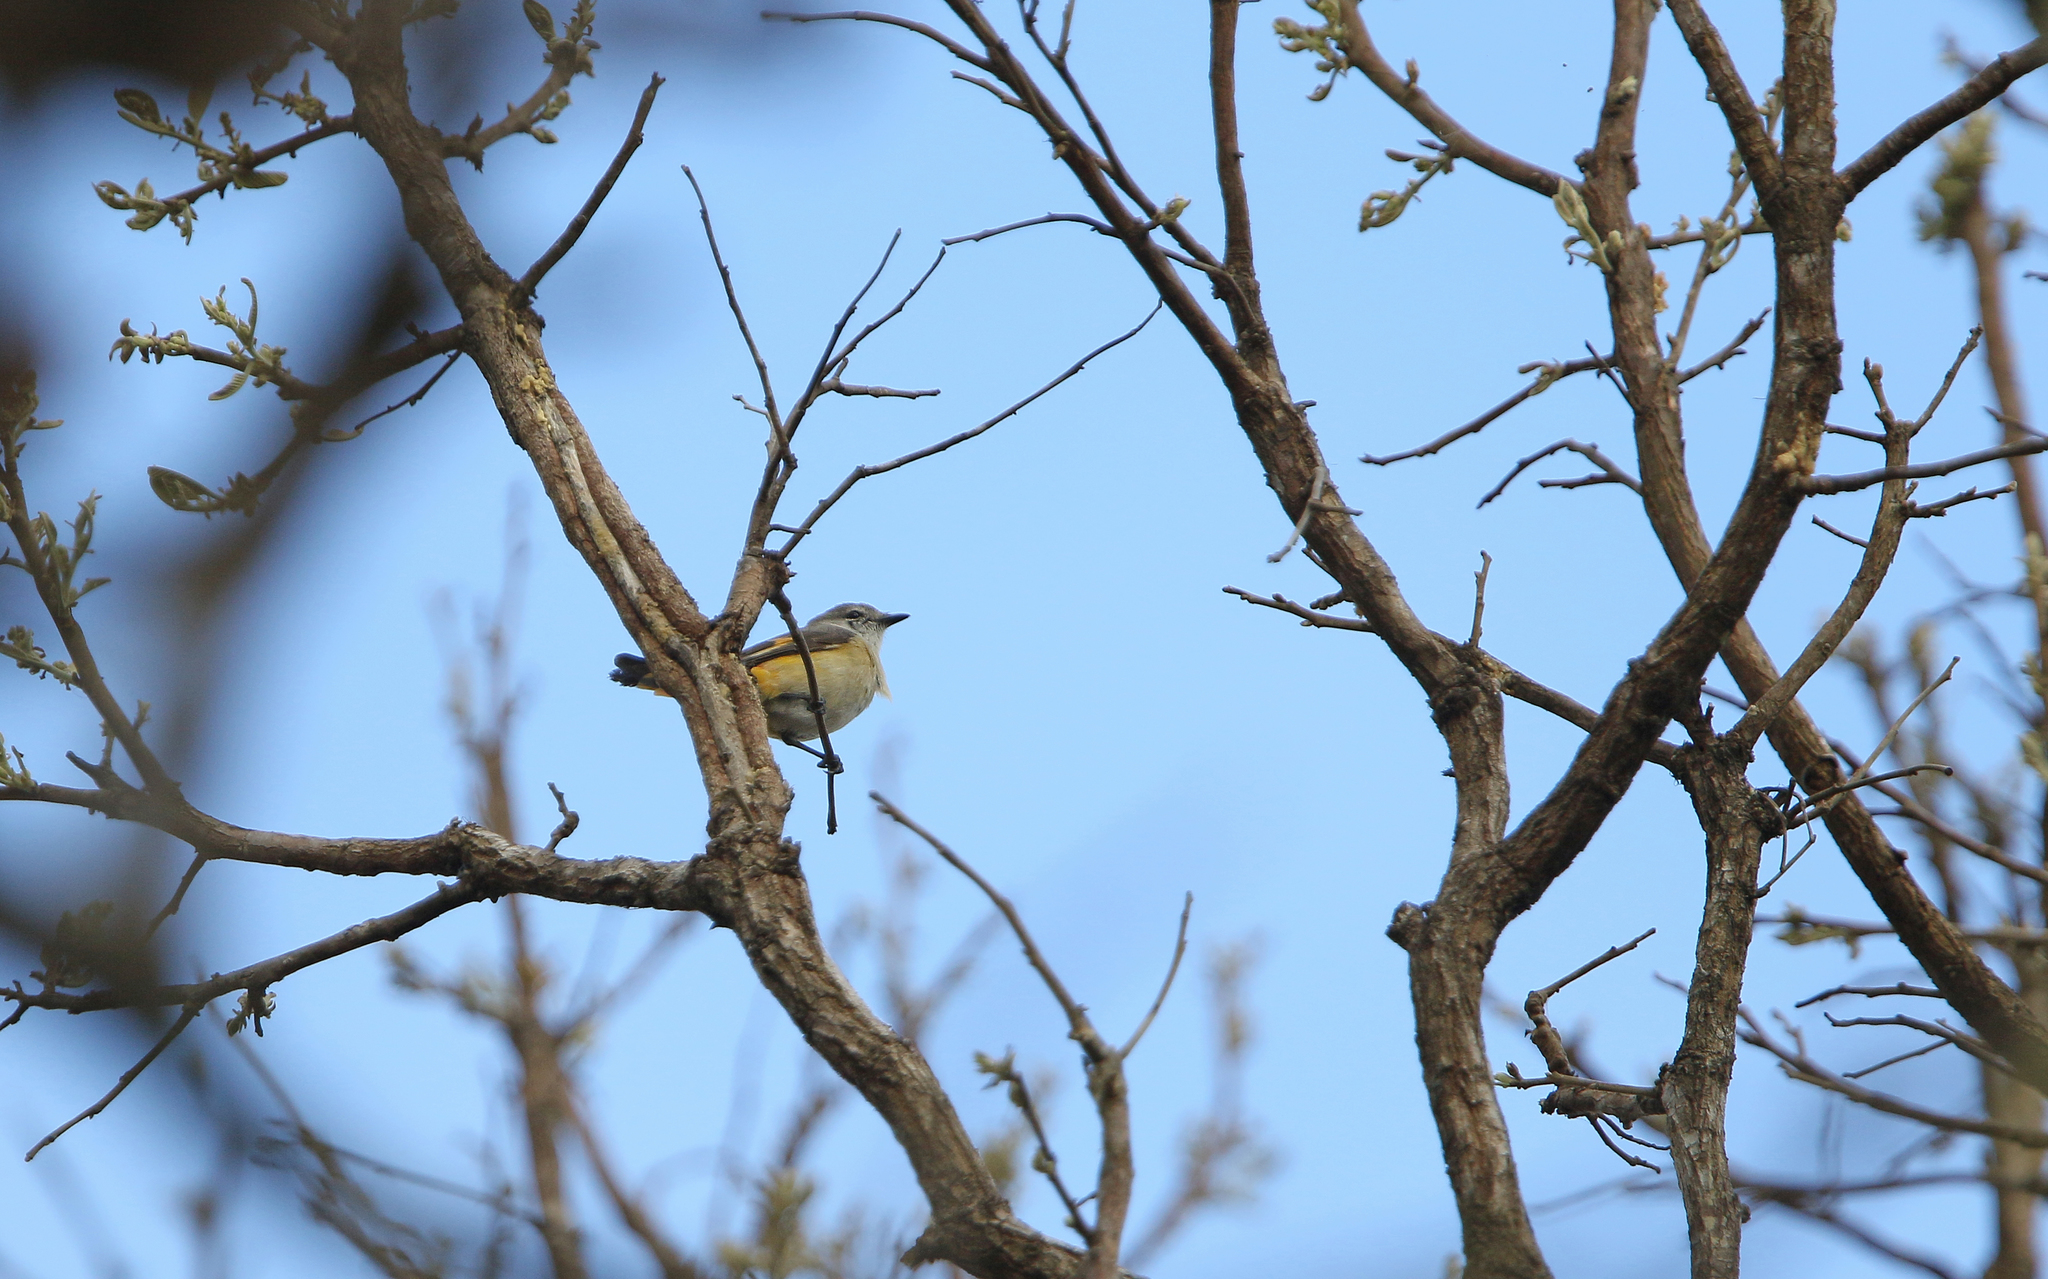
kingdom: Animalia
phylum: Chordata
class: Aves
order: Passeriformes
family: Campephagidae
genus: Pericrocotus
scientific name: Pericrocotus cinnamomeus
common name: Small minivet
